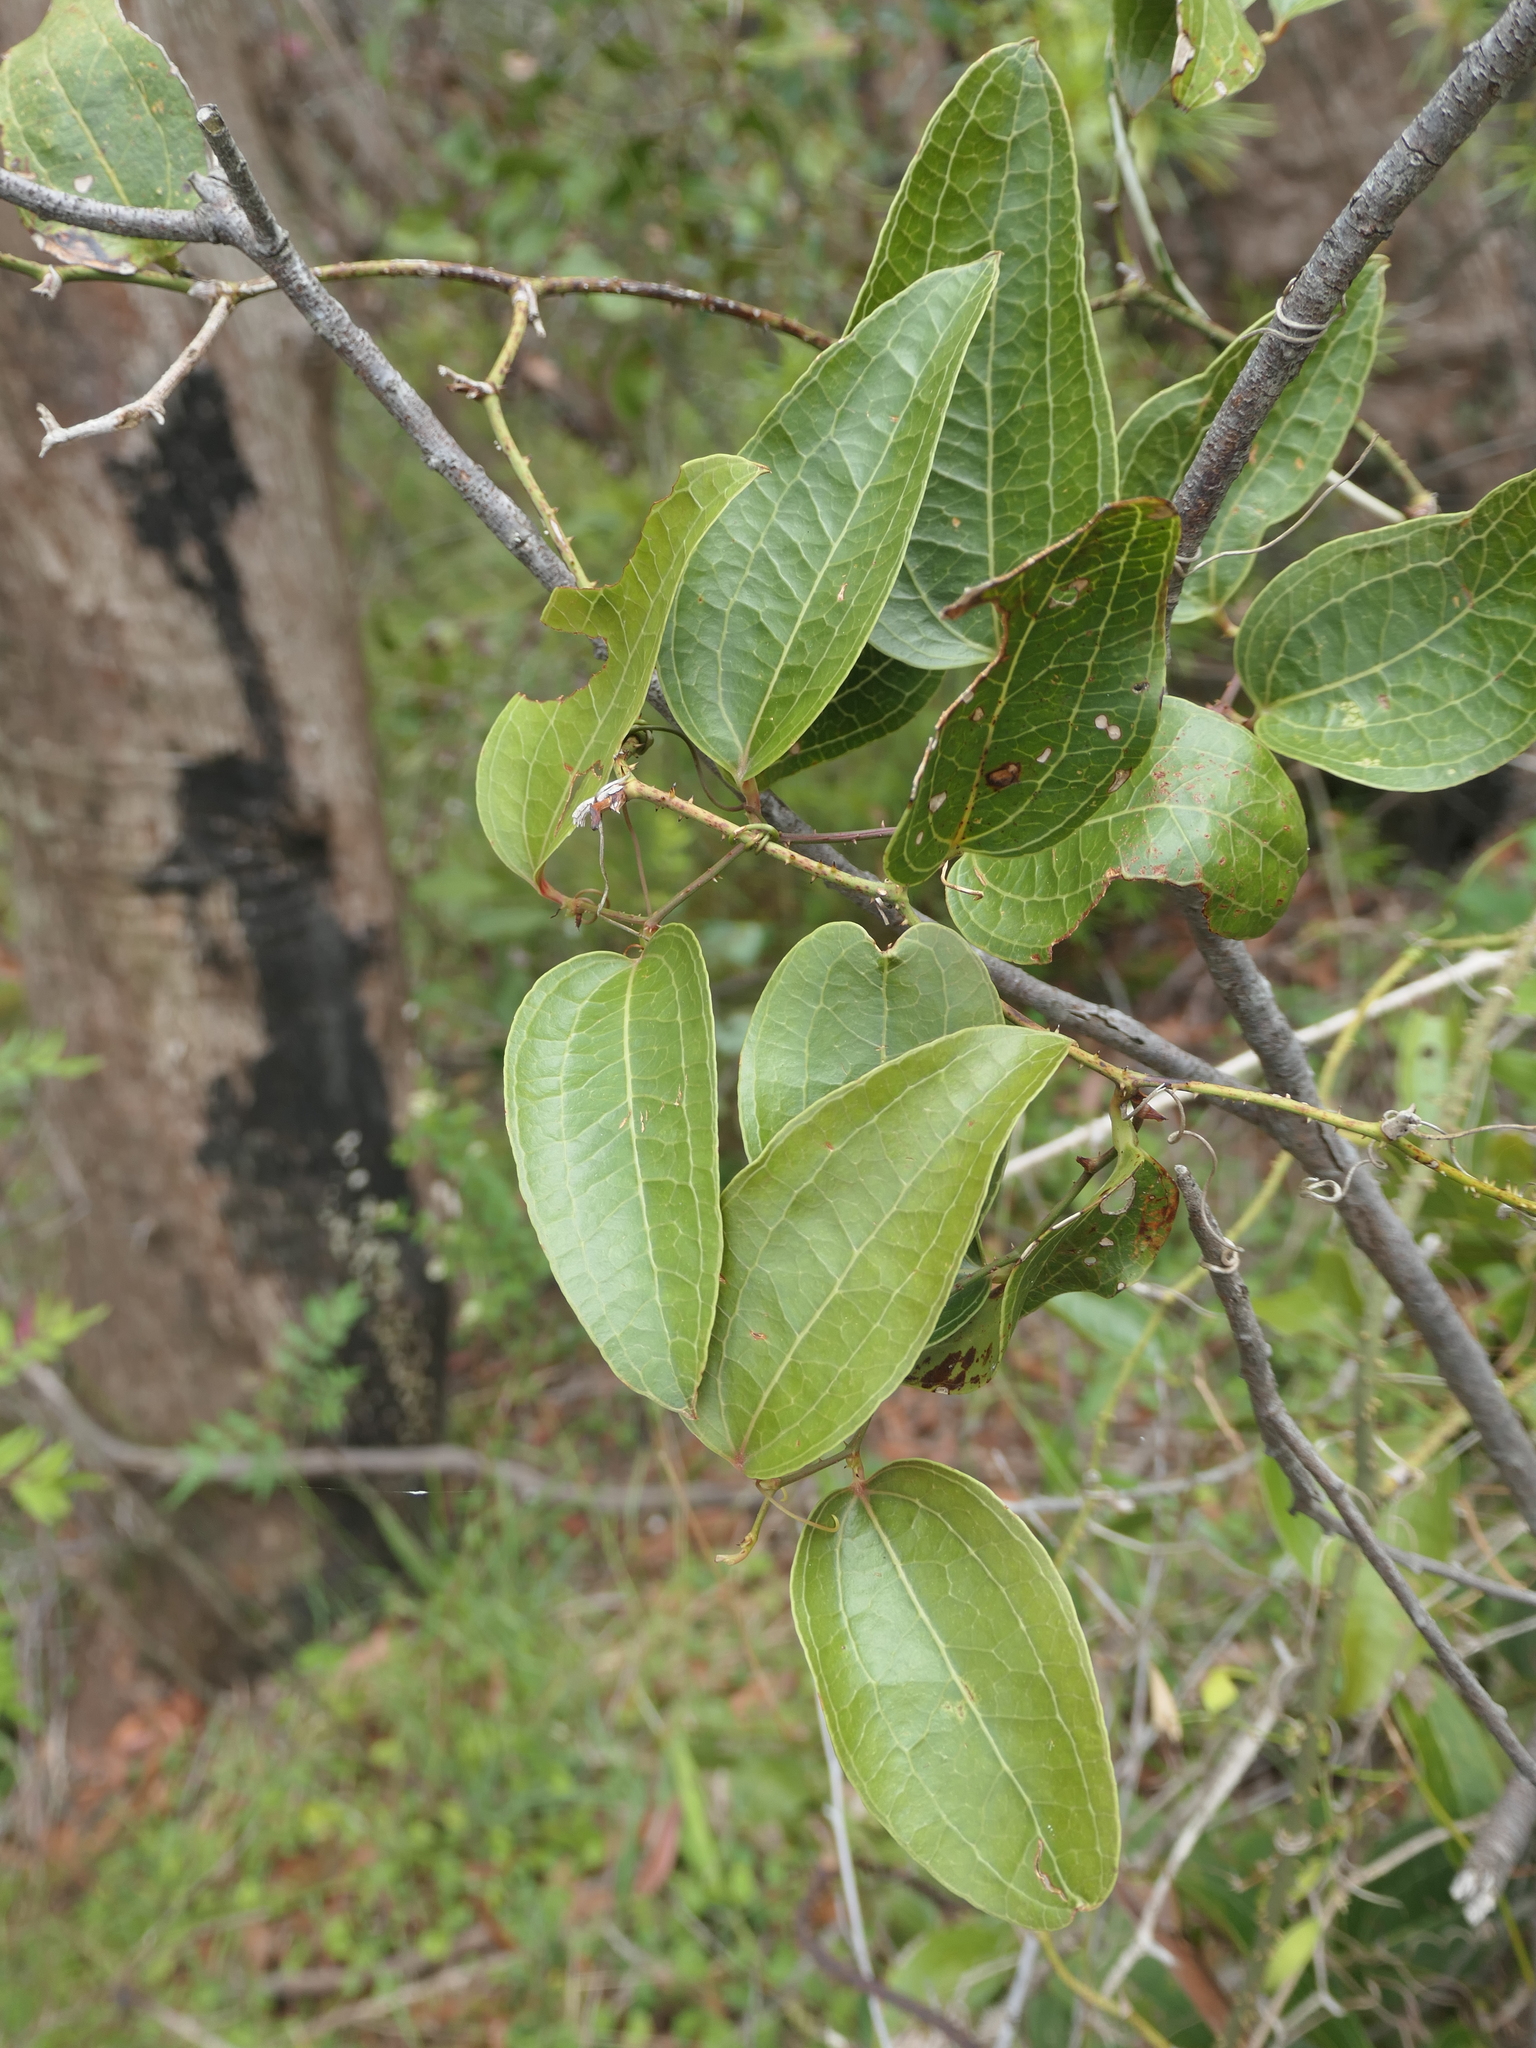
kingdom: Plantae
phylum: Tracheophyta
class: Liliopsida
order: Liliales
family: Smilacaceae
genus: Smilax
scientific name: Smilax australis
